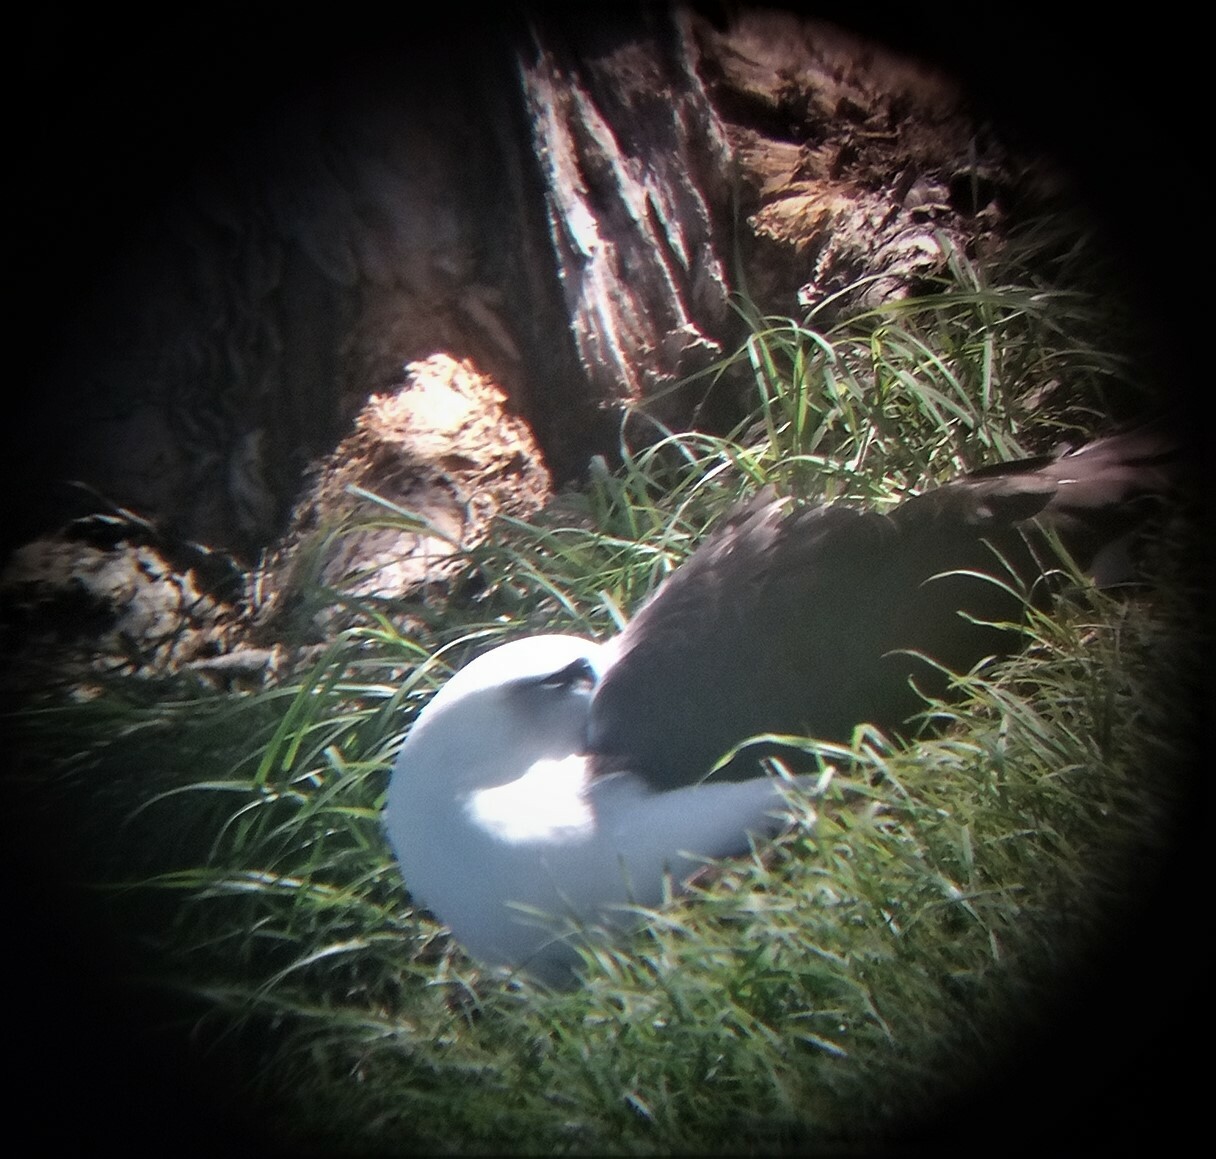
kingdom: Animalia
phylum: Chordata
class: Aves
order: Procellariiformes
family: Diomedeidae
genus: Phoebastria
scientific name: Phoebastria immutabilis
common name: Laysan albatross
